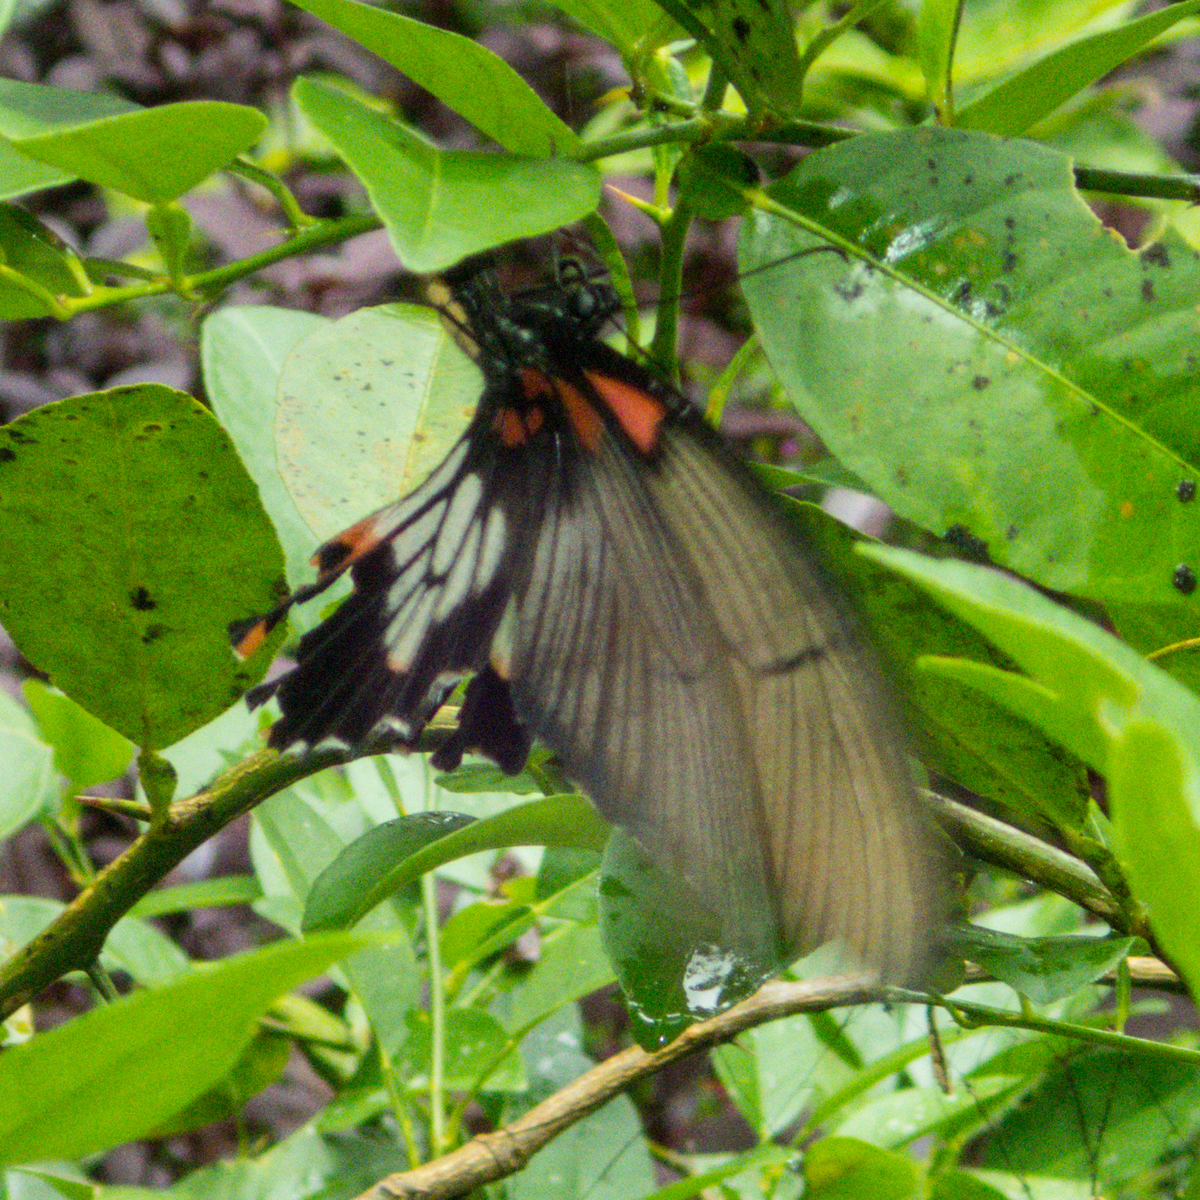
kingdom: Animalia
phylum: Arthropoda
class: Insecta
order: Lepidoptera
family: Papilionidae
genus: Papilio
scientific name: Papilio memnon
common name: Great mormon
